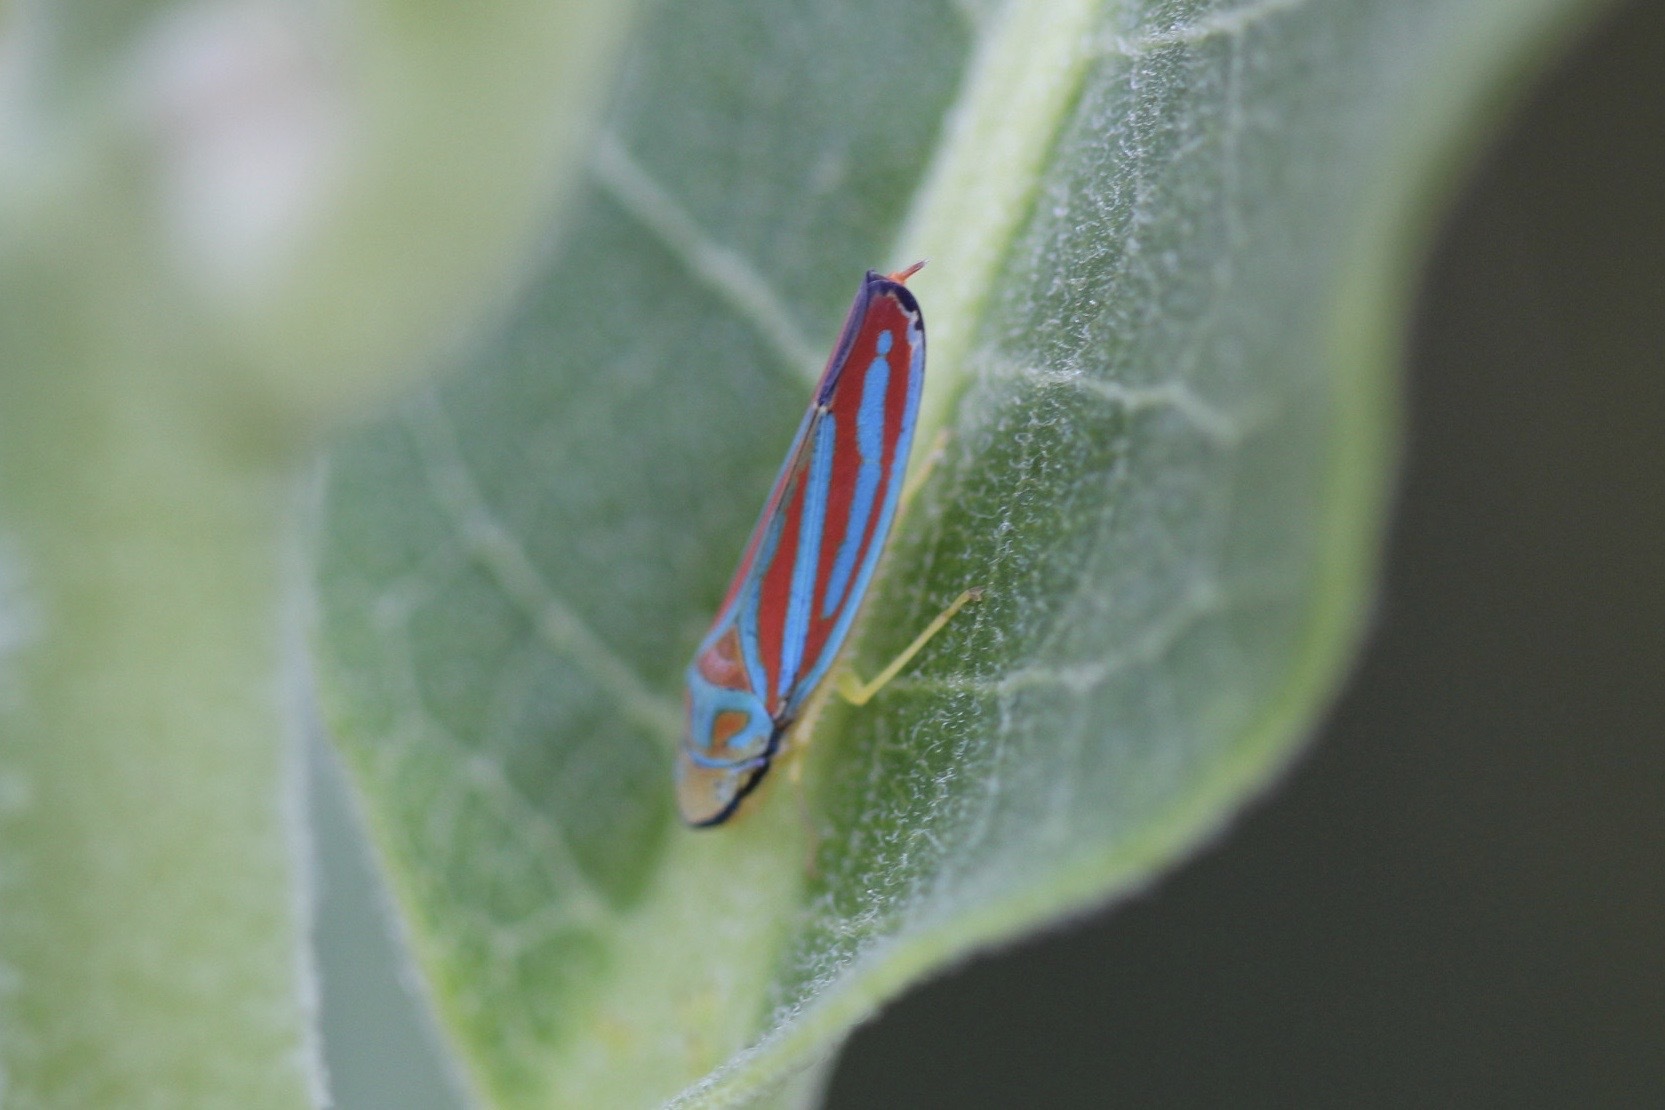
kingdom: Animalia
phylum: Arthropoda
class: Insecta
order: Hemiptera
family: Cicadellidae
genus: Graphocephala
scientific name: Graphocephala coccinea
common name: Candy-striped leafhopper
